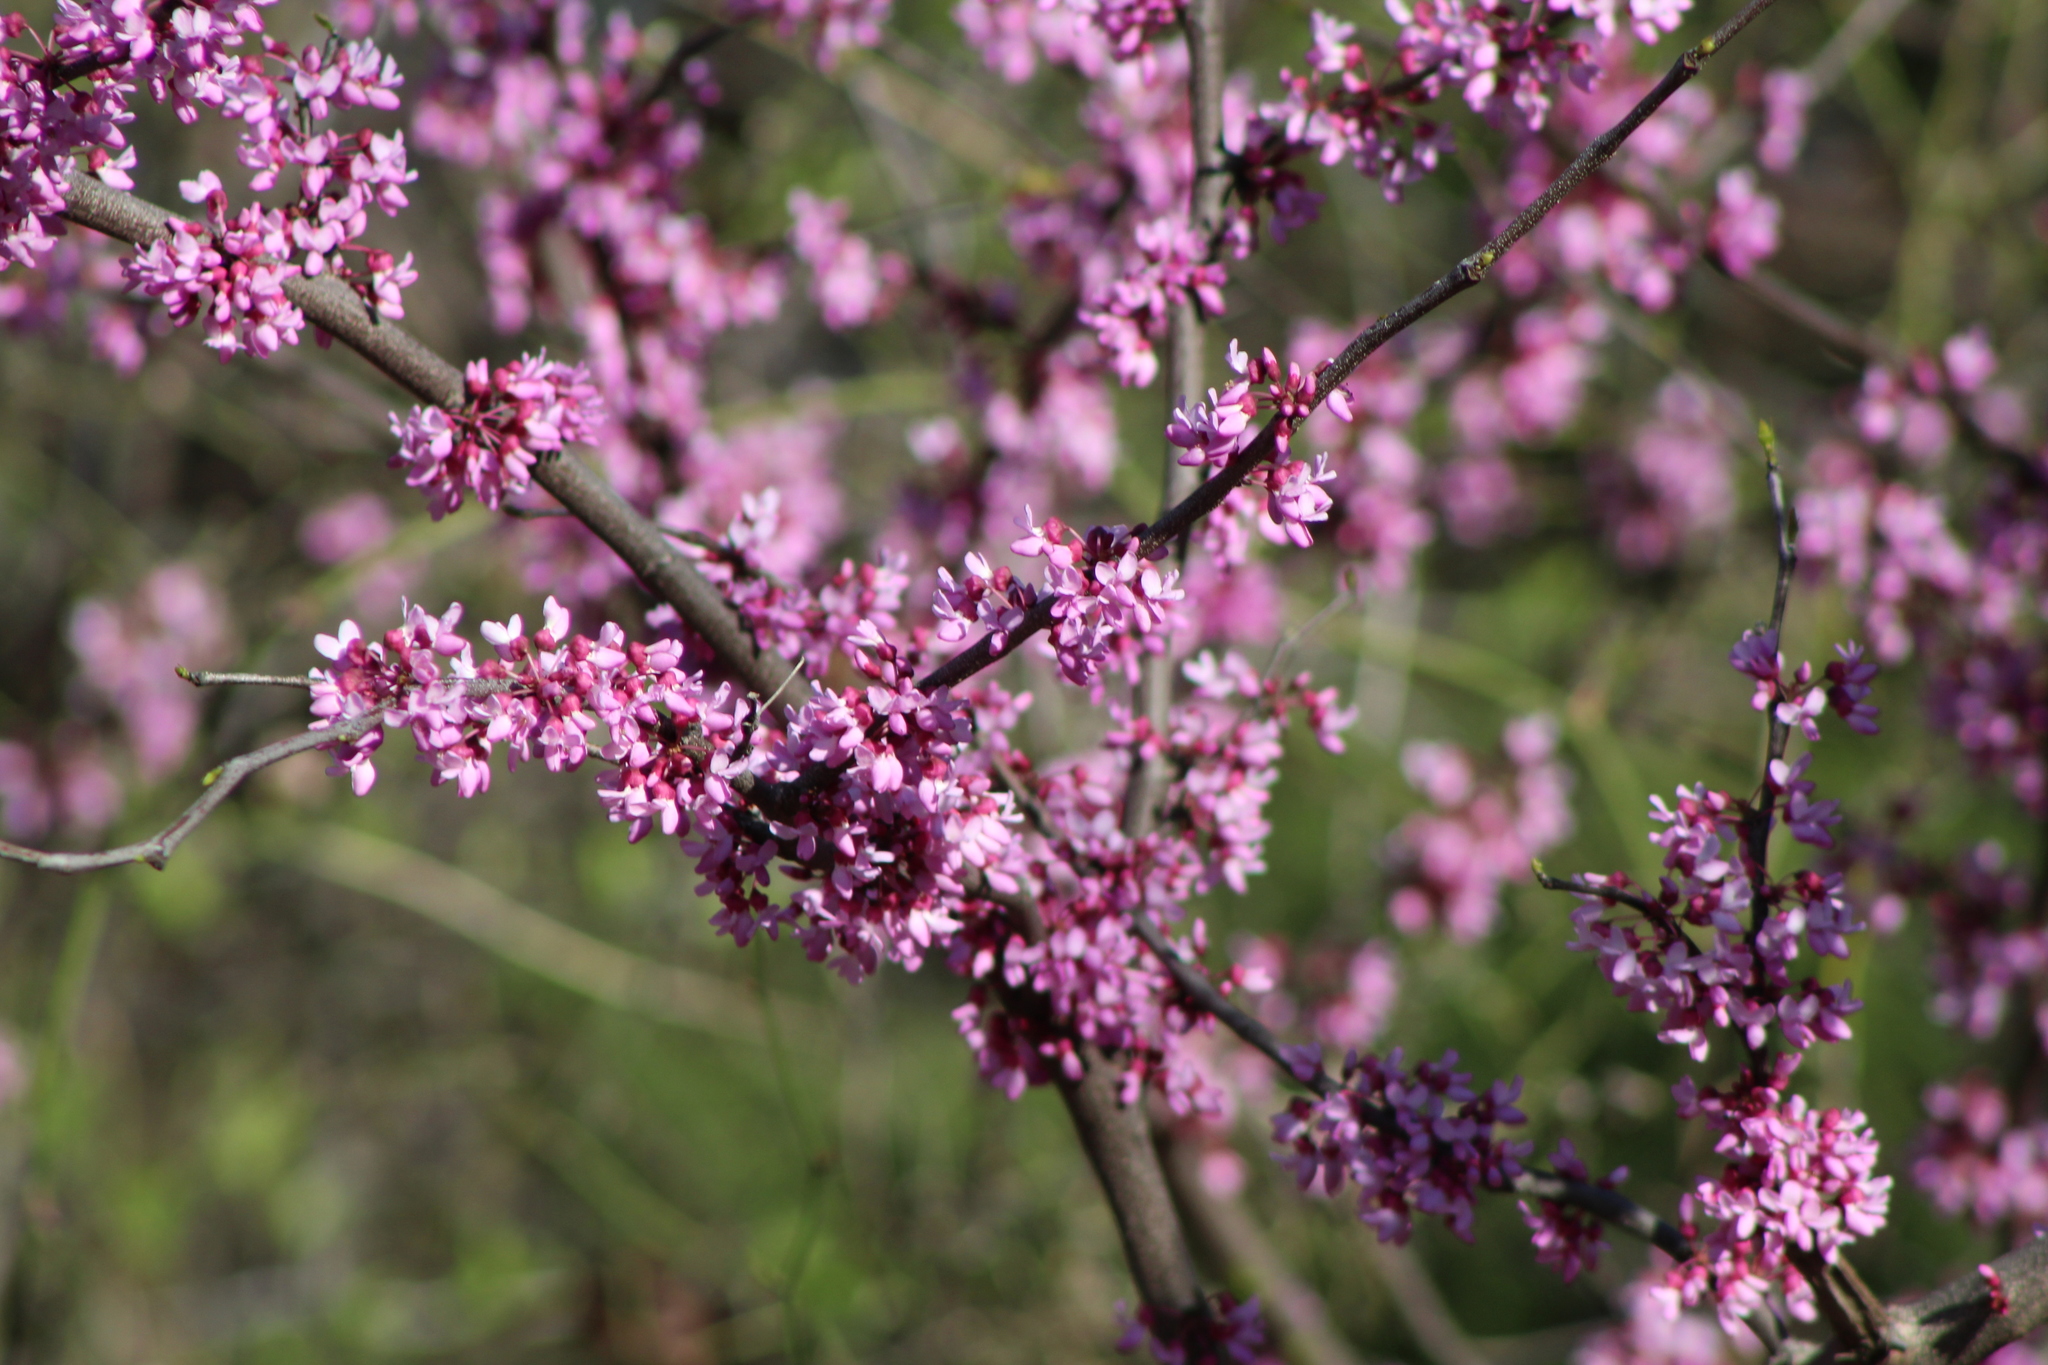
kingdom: Plantae
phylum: Tracheophyta
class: Magnoliopsida
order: Fabales
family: Fabaceae
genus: Cercis
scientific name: Cercis canadensis
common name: Eastern redbud
